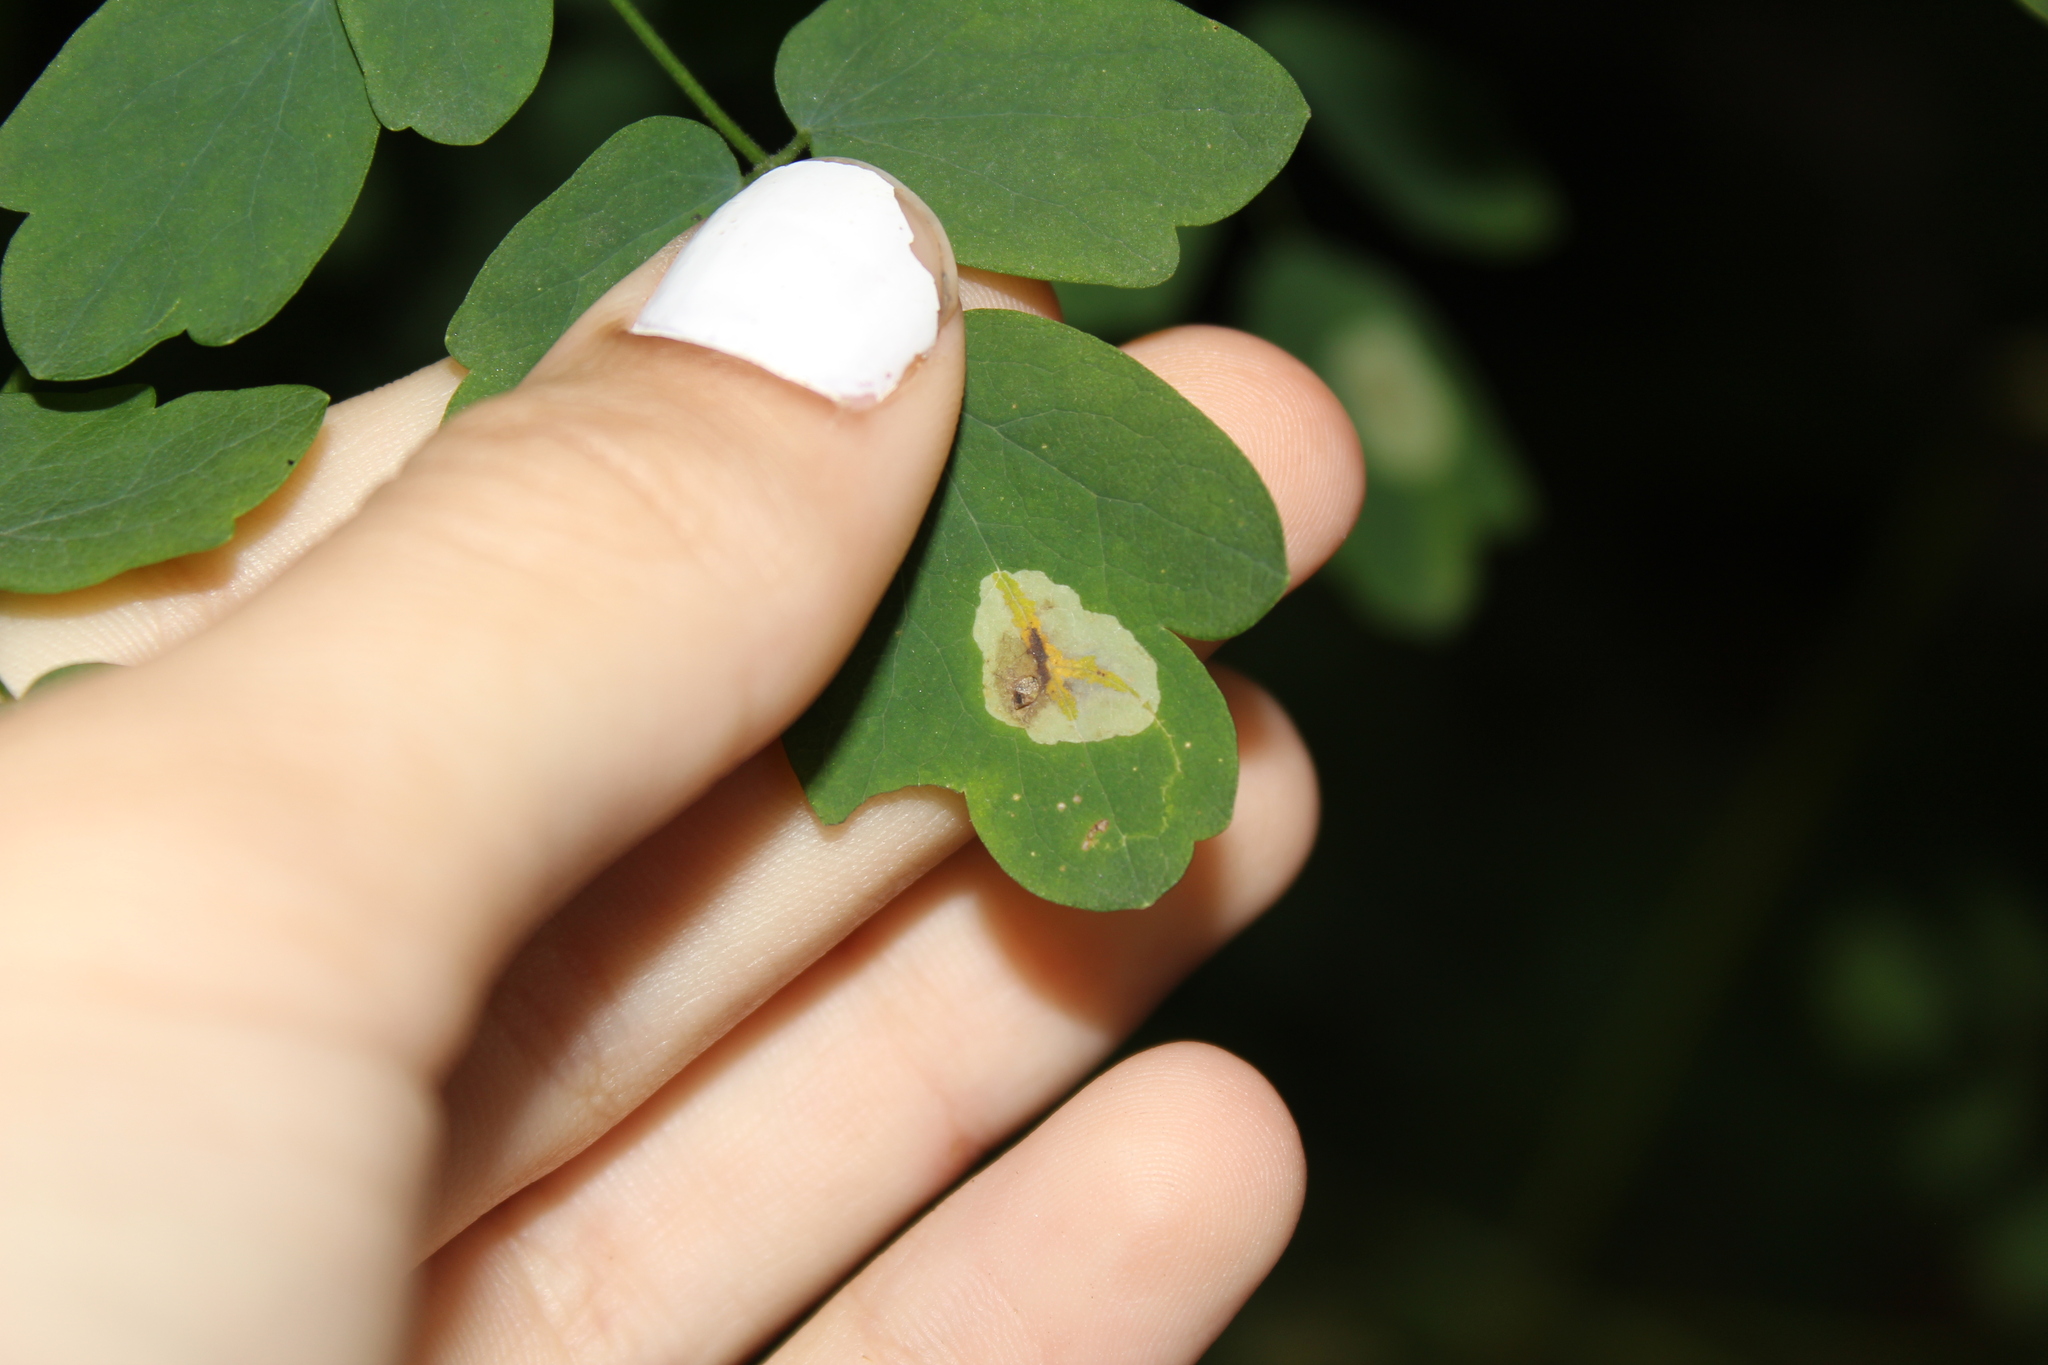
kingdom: Animalia
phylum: Arthropoda
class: Insecta
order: Diptera
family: Agromyzidae
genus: Phytomyza
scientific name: Phytomyza plumiseta
